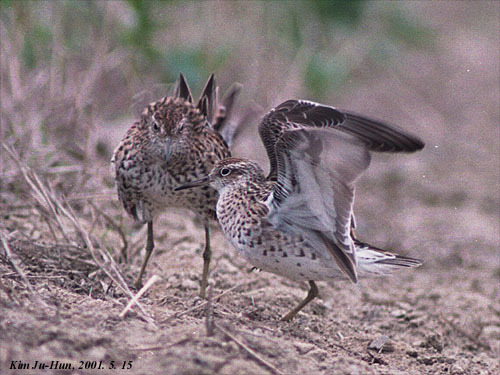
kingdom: Animalia
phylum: Chordata
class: Aves
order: Charadriiformes
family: Scolopacidae
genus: Calidris
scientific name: Calidris acuminata
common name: Sharp-tailed sandpiper
